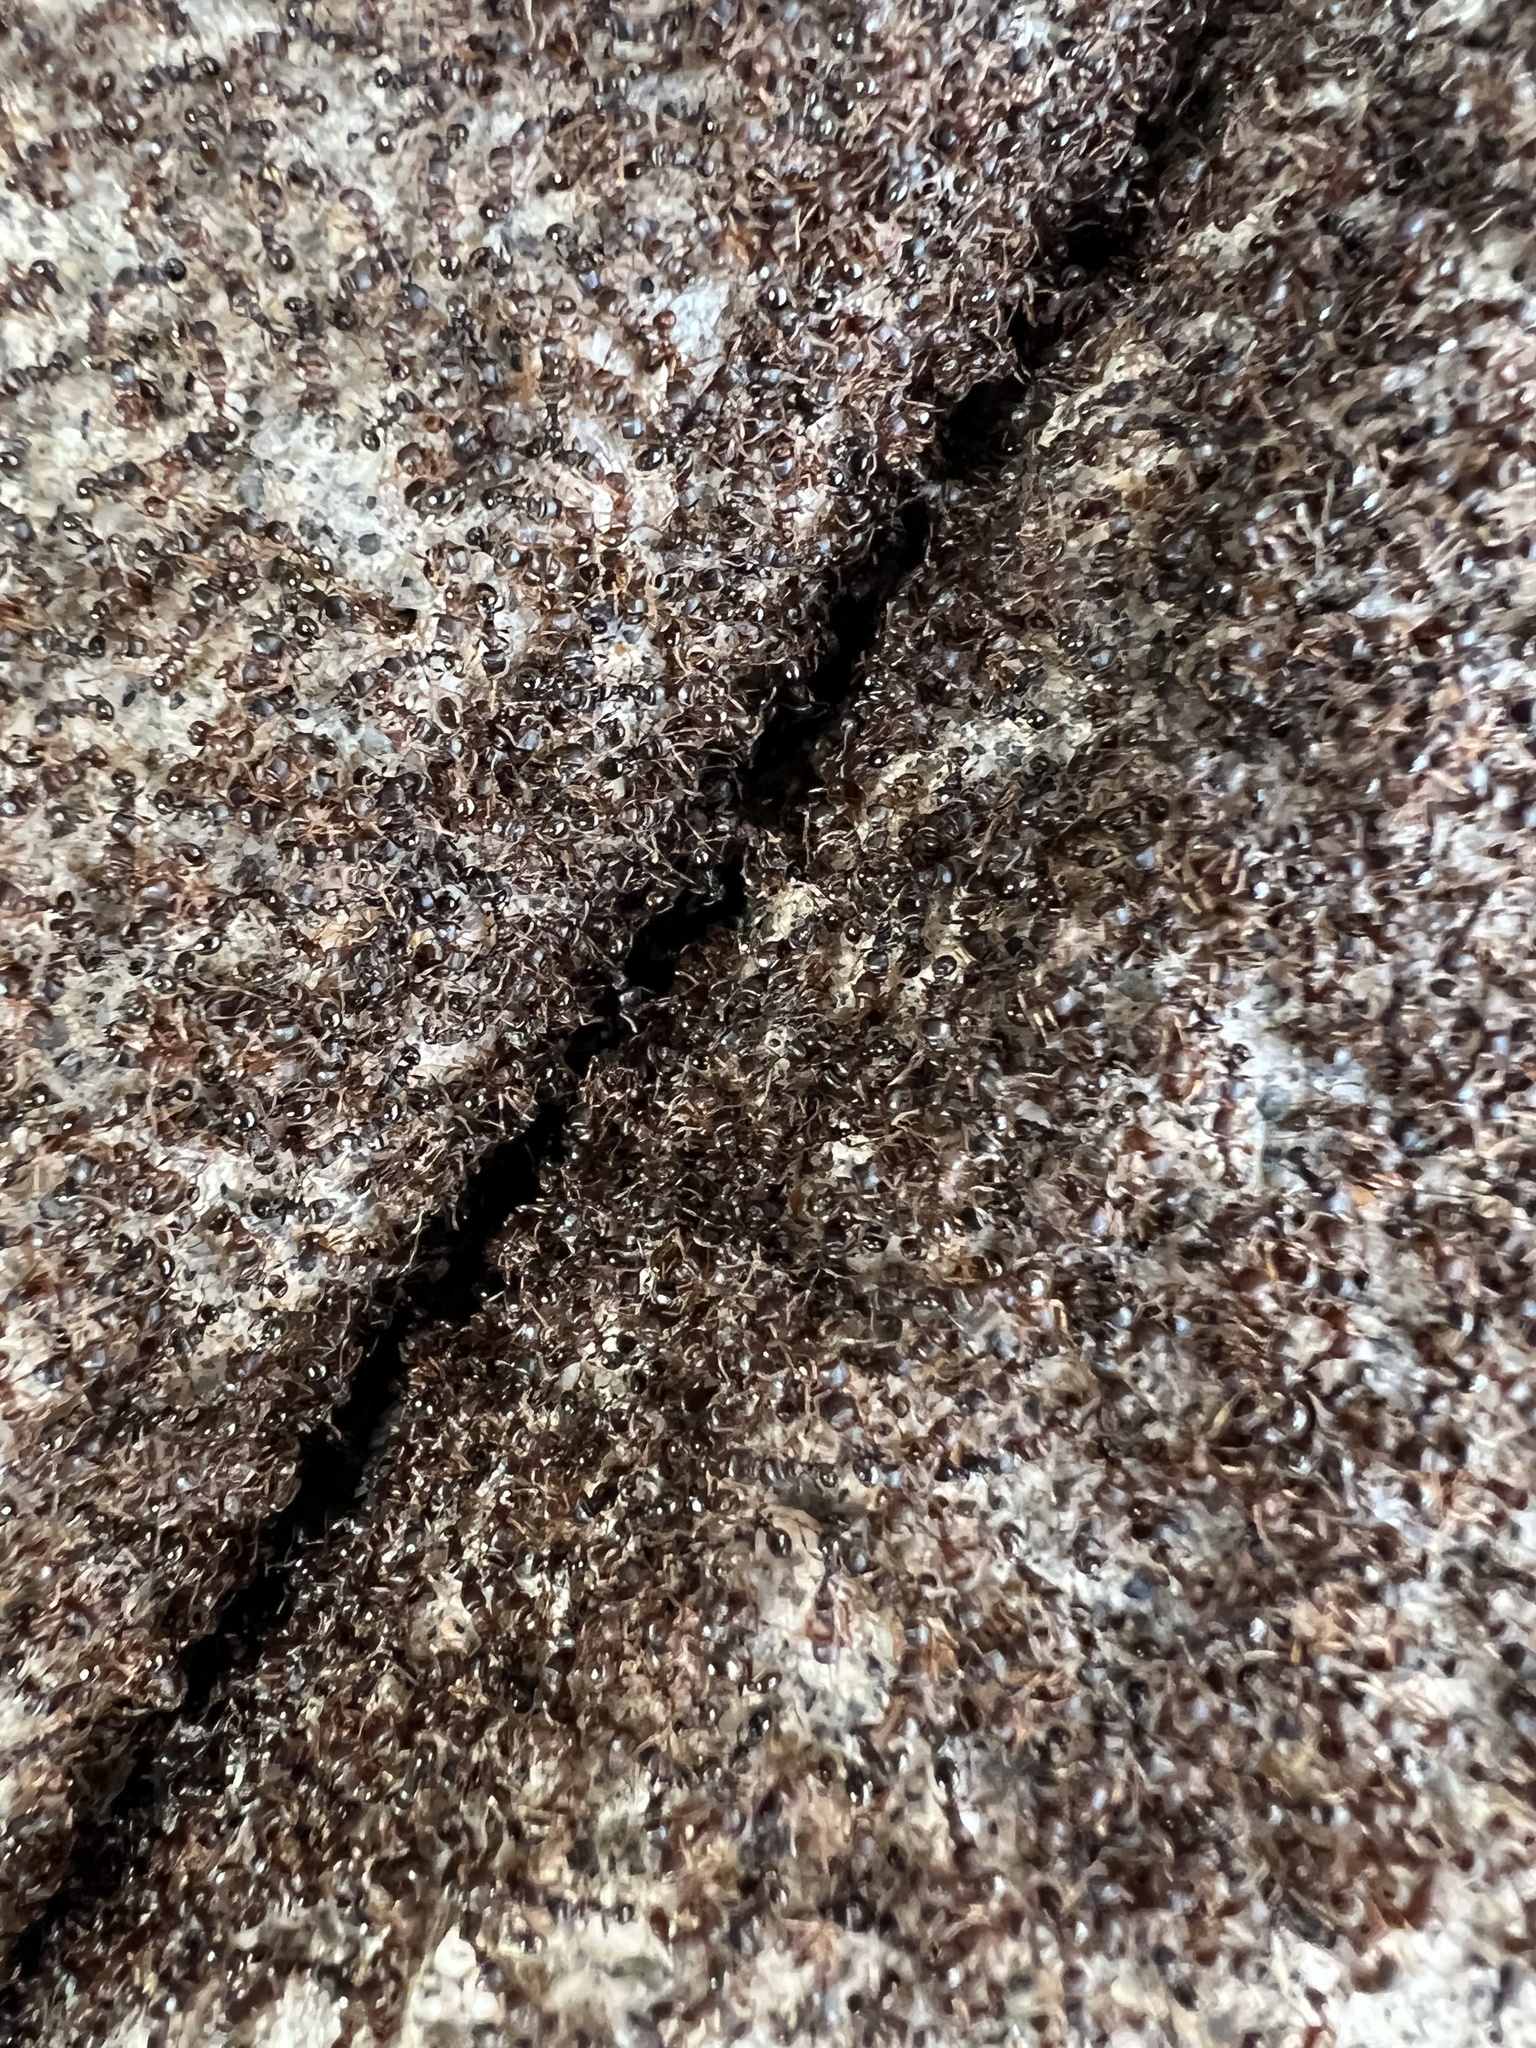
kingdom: Animalia
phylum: Arthropoda
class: Insecta
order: Hymenoptera
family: Formicidae
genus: Tetramorium
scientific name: Tetramorium immigrans
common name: Pavement ant
